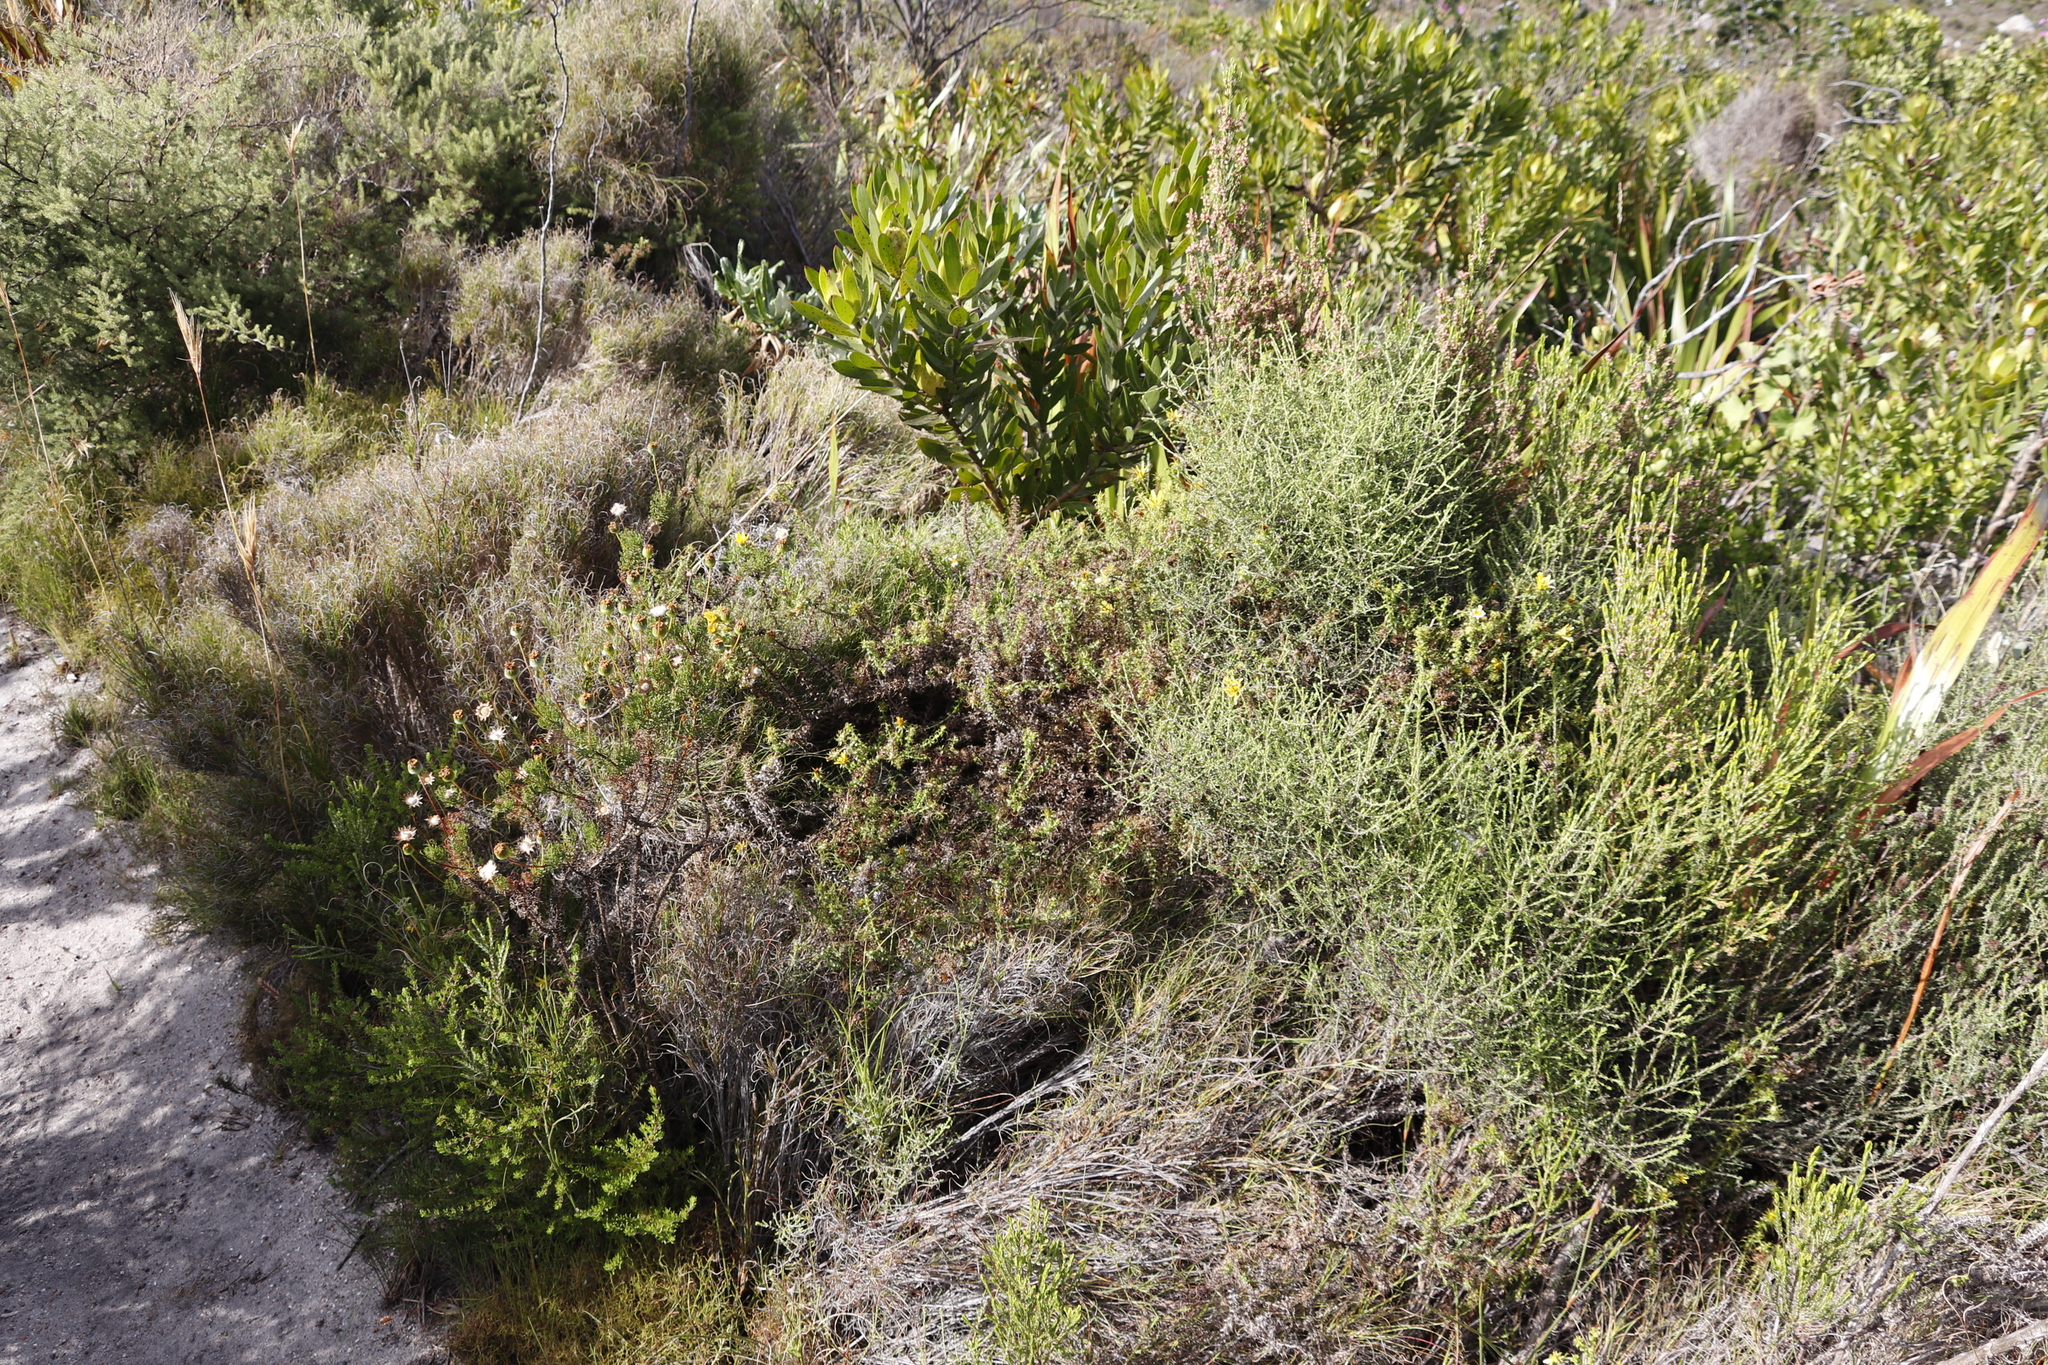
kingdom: Plantae
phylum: Tracheophyta
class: Magnoliopsida
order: Asterales
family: Asteraceae
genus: Cullumia
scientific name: Cullumia setosa
